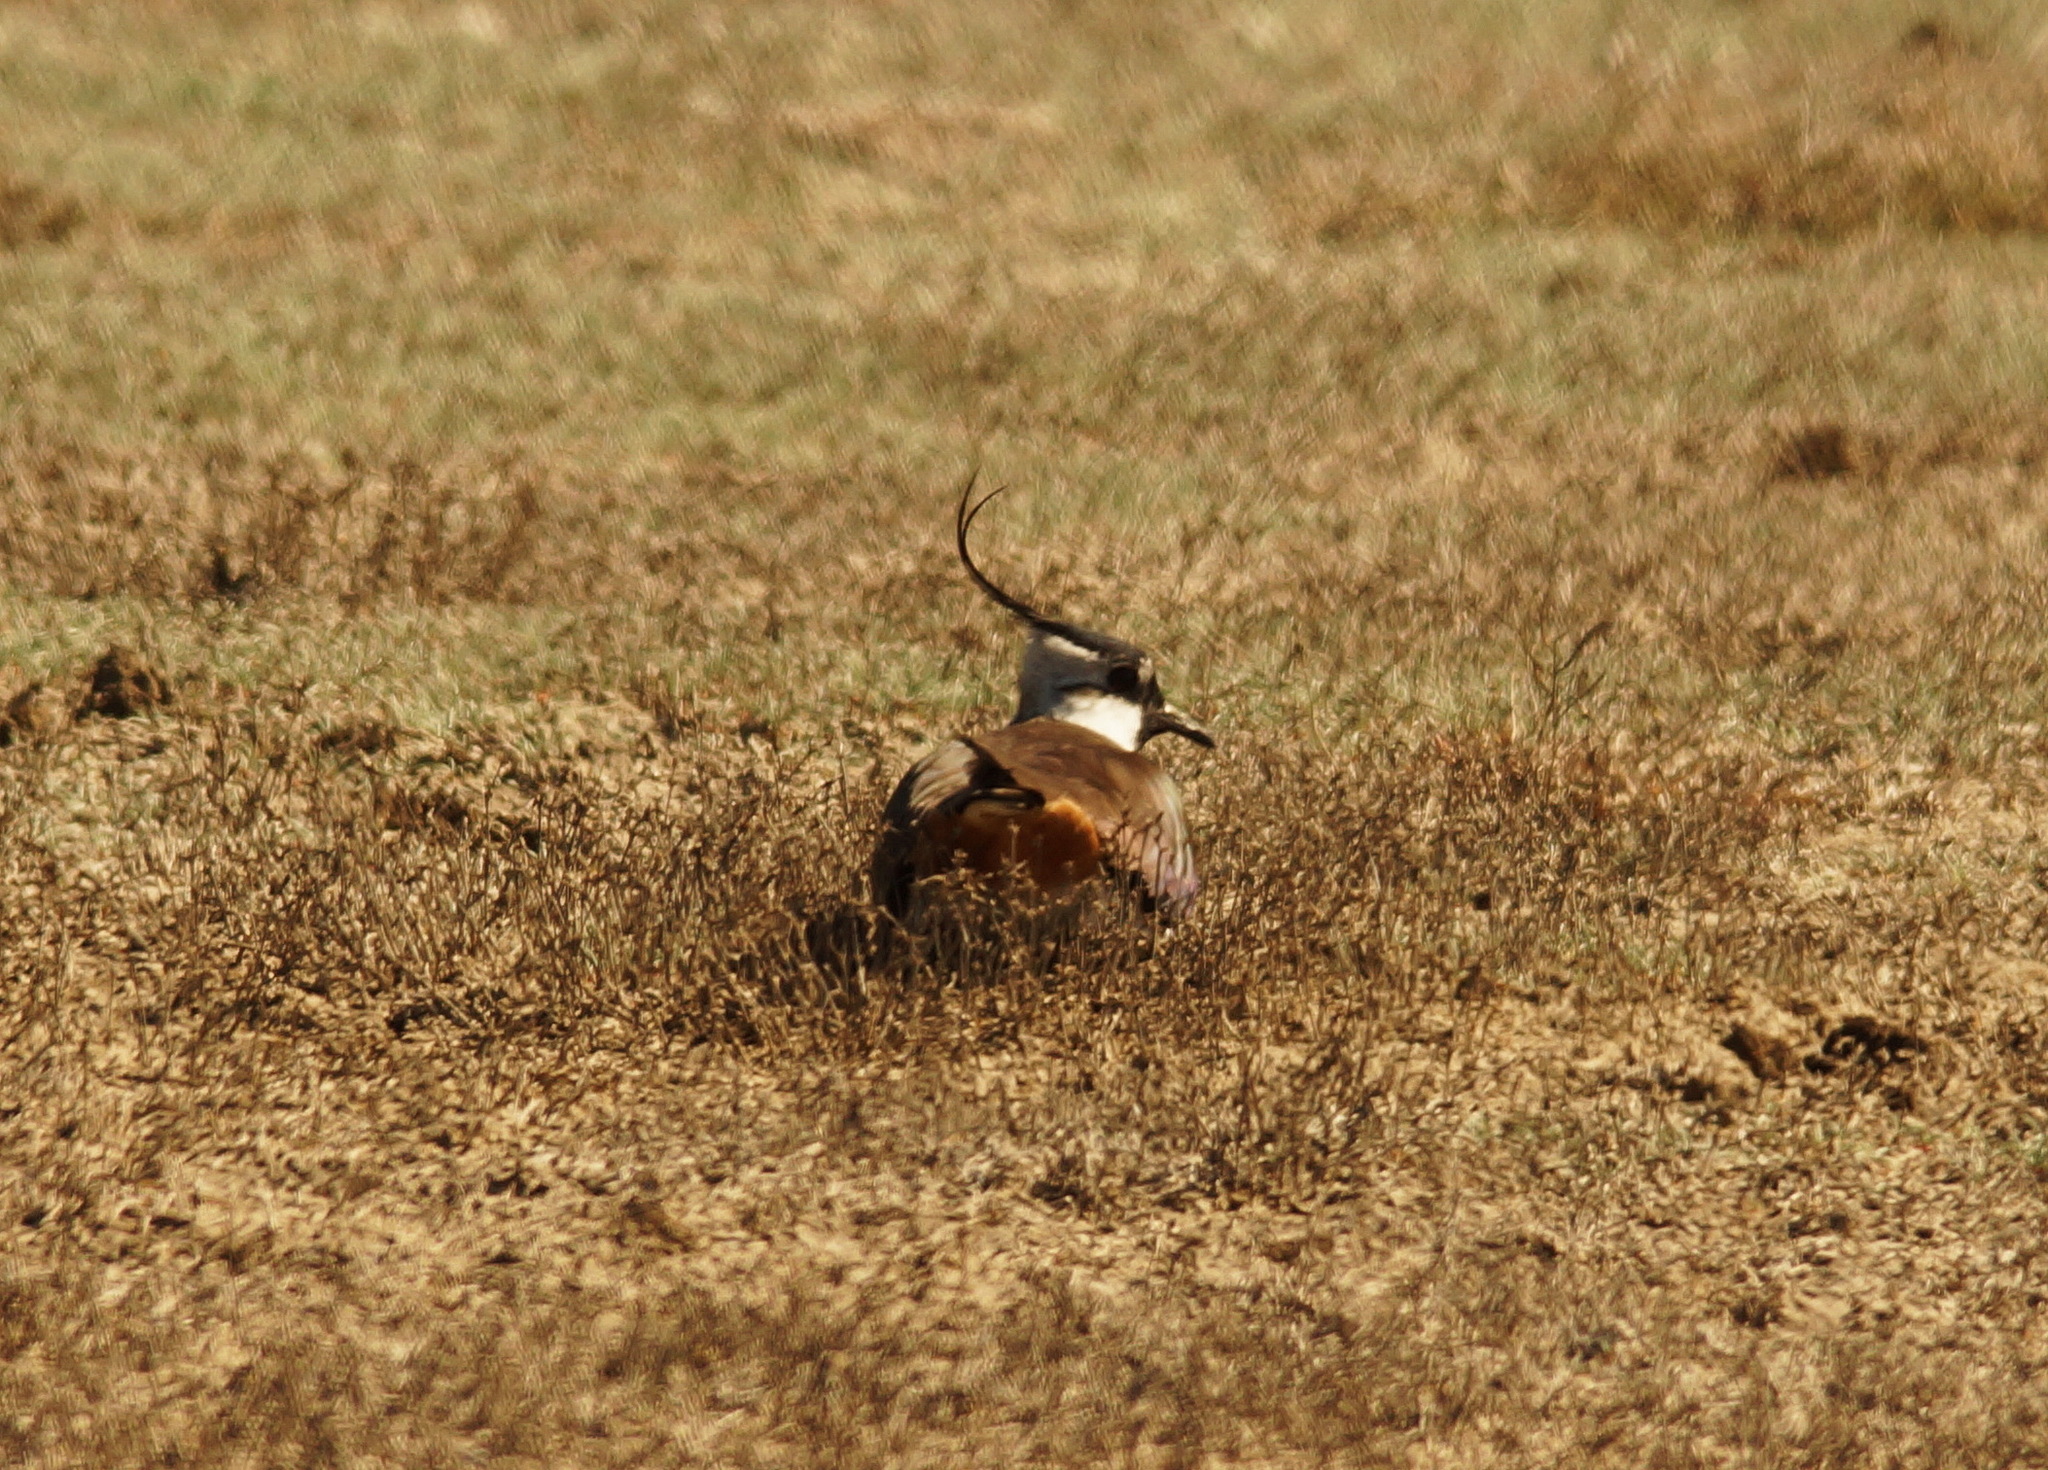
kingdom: Animalia
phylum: Chordata
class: Aves
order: Charadriiformes
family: Charadriidae
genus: Vanellus
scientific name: Vanellus vanellus
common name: Northern lapwing
